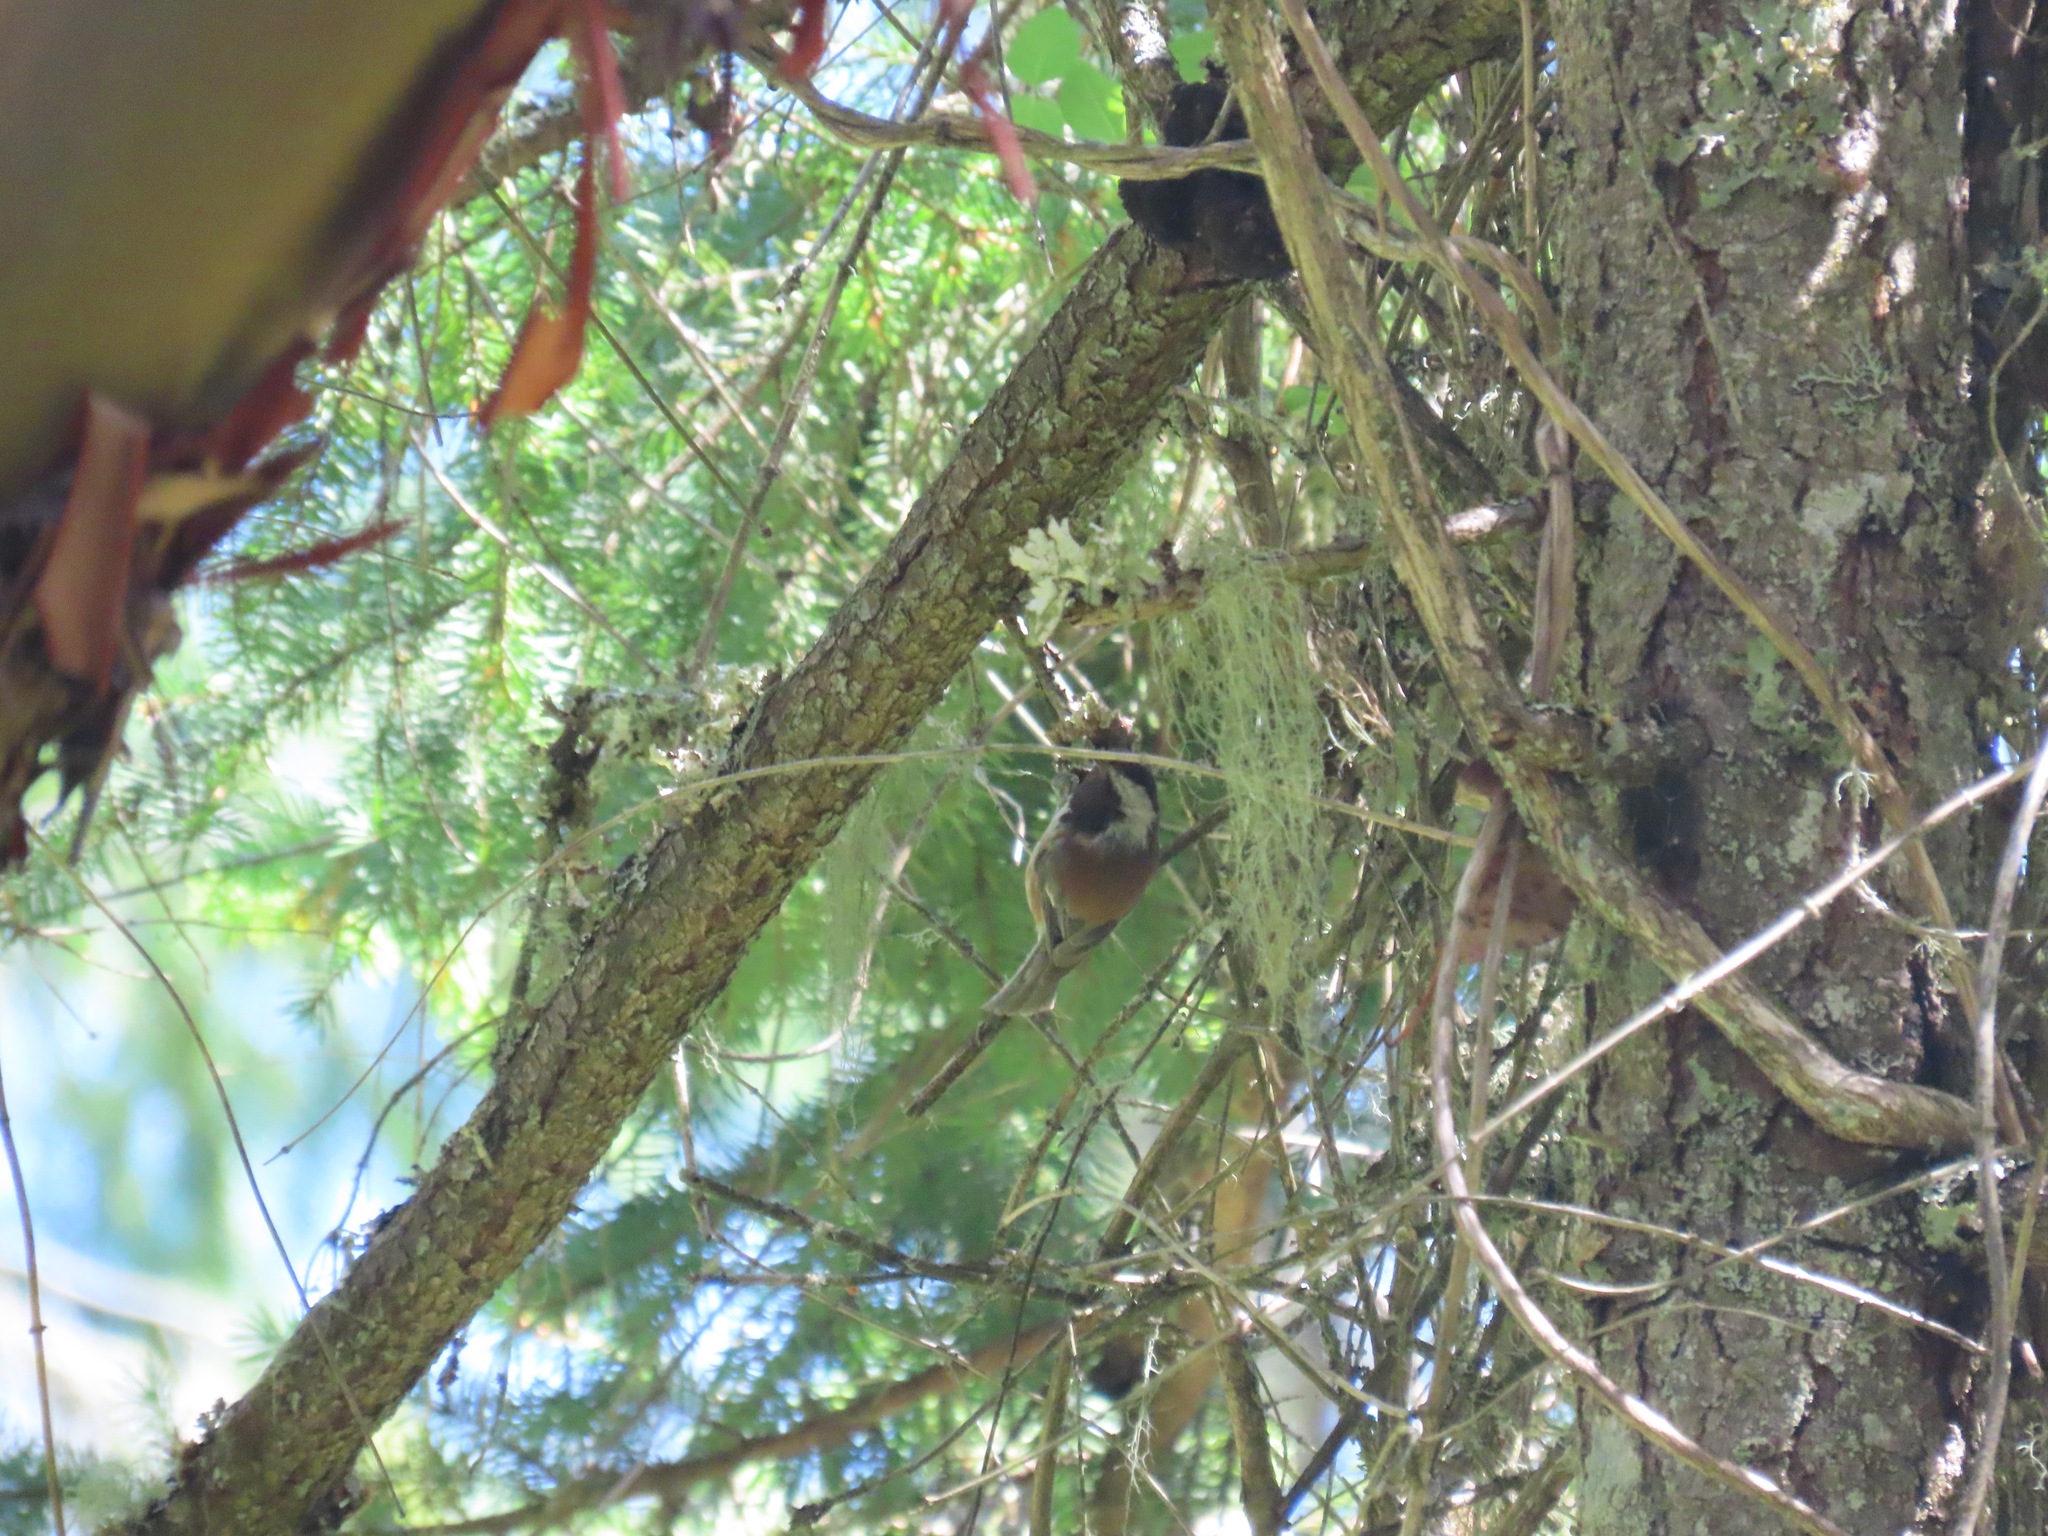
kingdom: Animalia
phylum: Chordata
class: Aves
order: Passeriformes
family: Paridae
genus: Poecile
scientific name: Poecile rufescens
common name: Chestnut-backed chickadee
